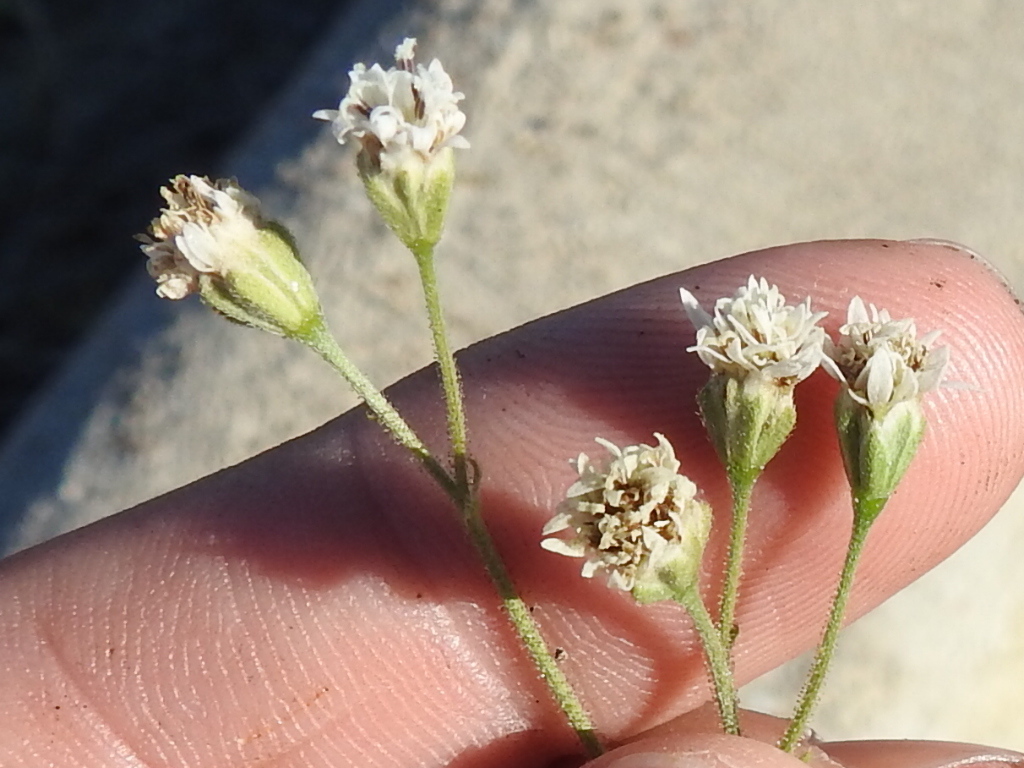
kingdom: Plantae
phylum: Tracheophyta
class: Magnoliopsida
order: Asterales
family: Asteraceae
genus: Florestina
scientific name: Florestina tripteris
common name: Sticky florestina
